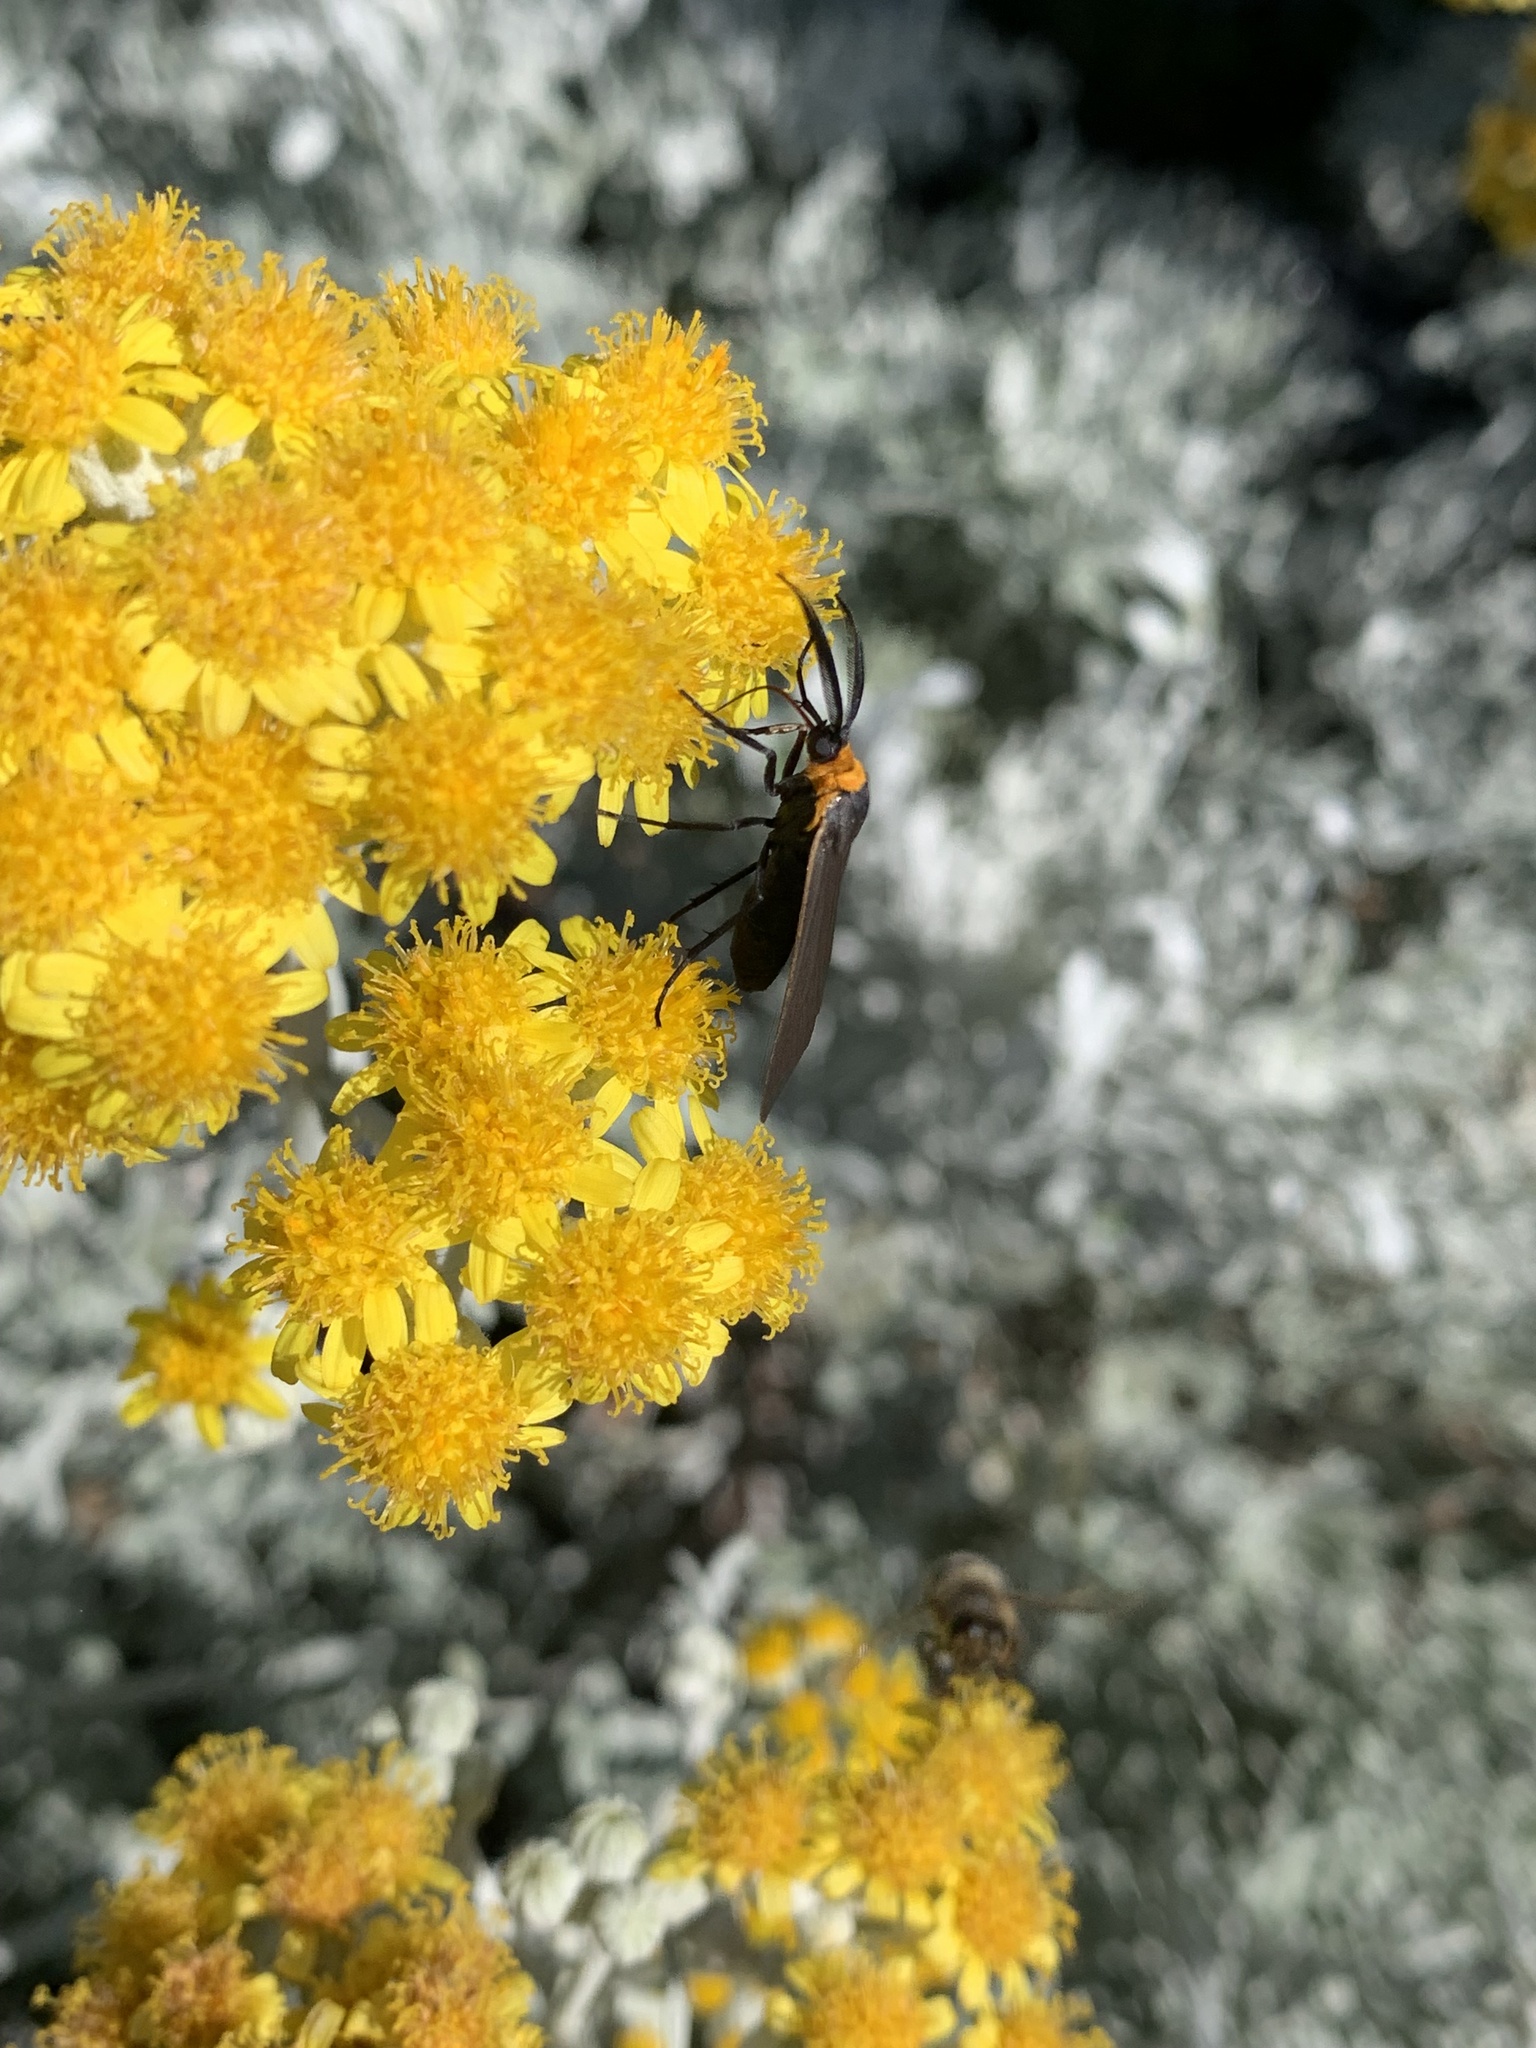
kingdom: Animalia
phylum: Arthropoda
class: Insecta
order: Lepidoptera
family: Erebidae
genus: Cisseps
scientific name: Cisseps fulvicollis
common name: Yellow-collared scape moth
